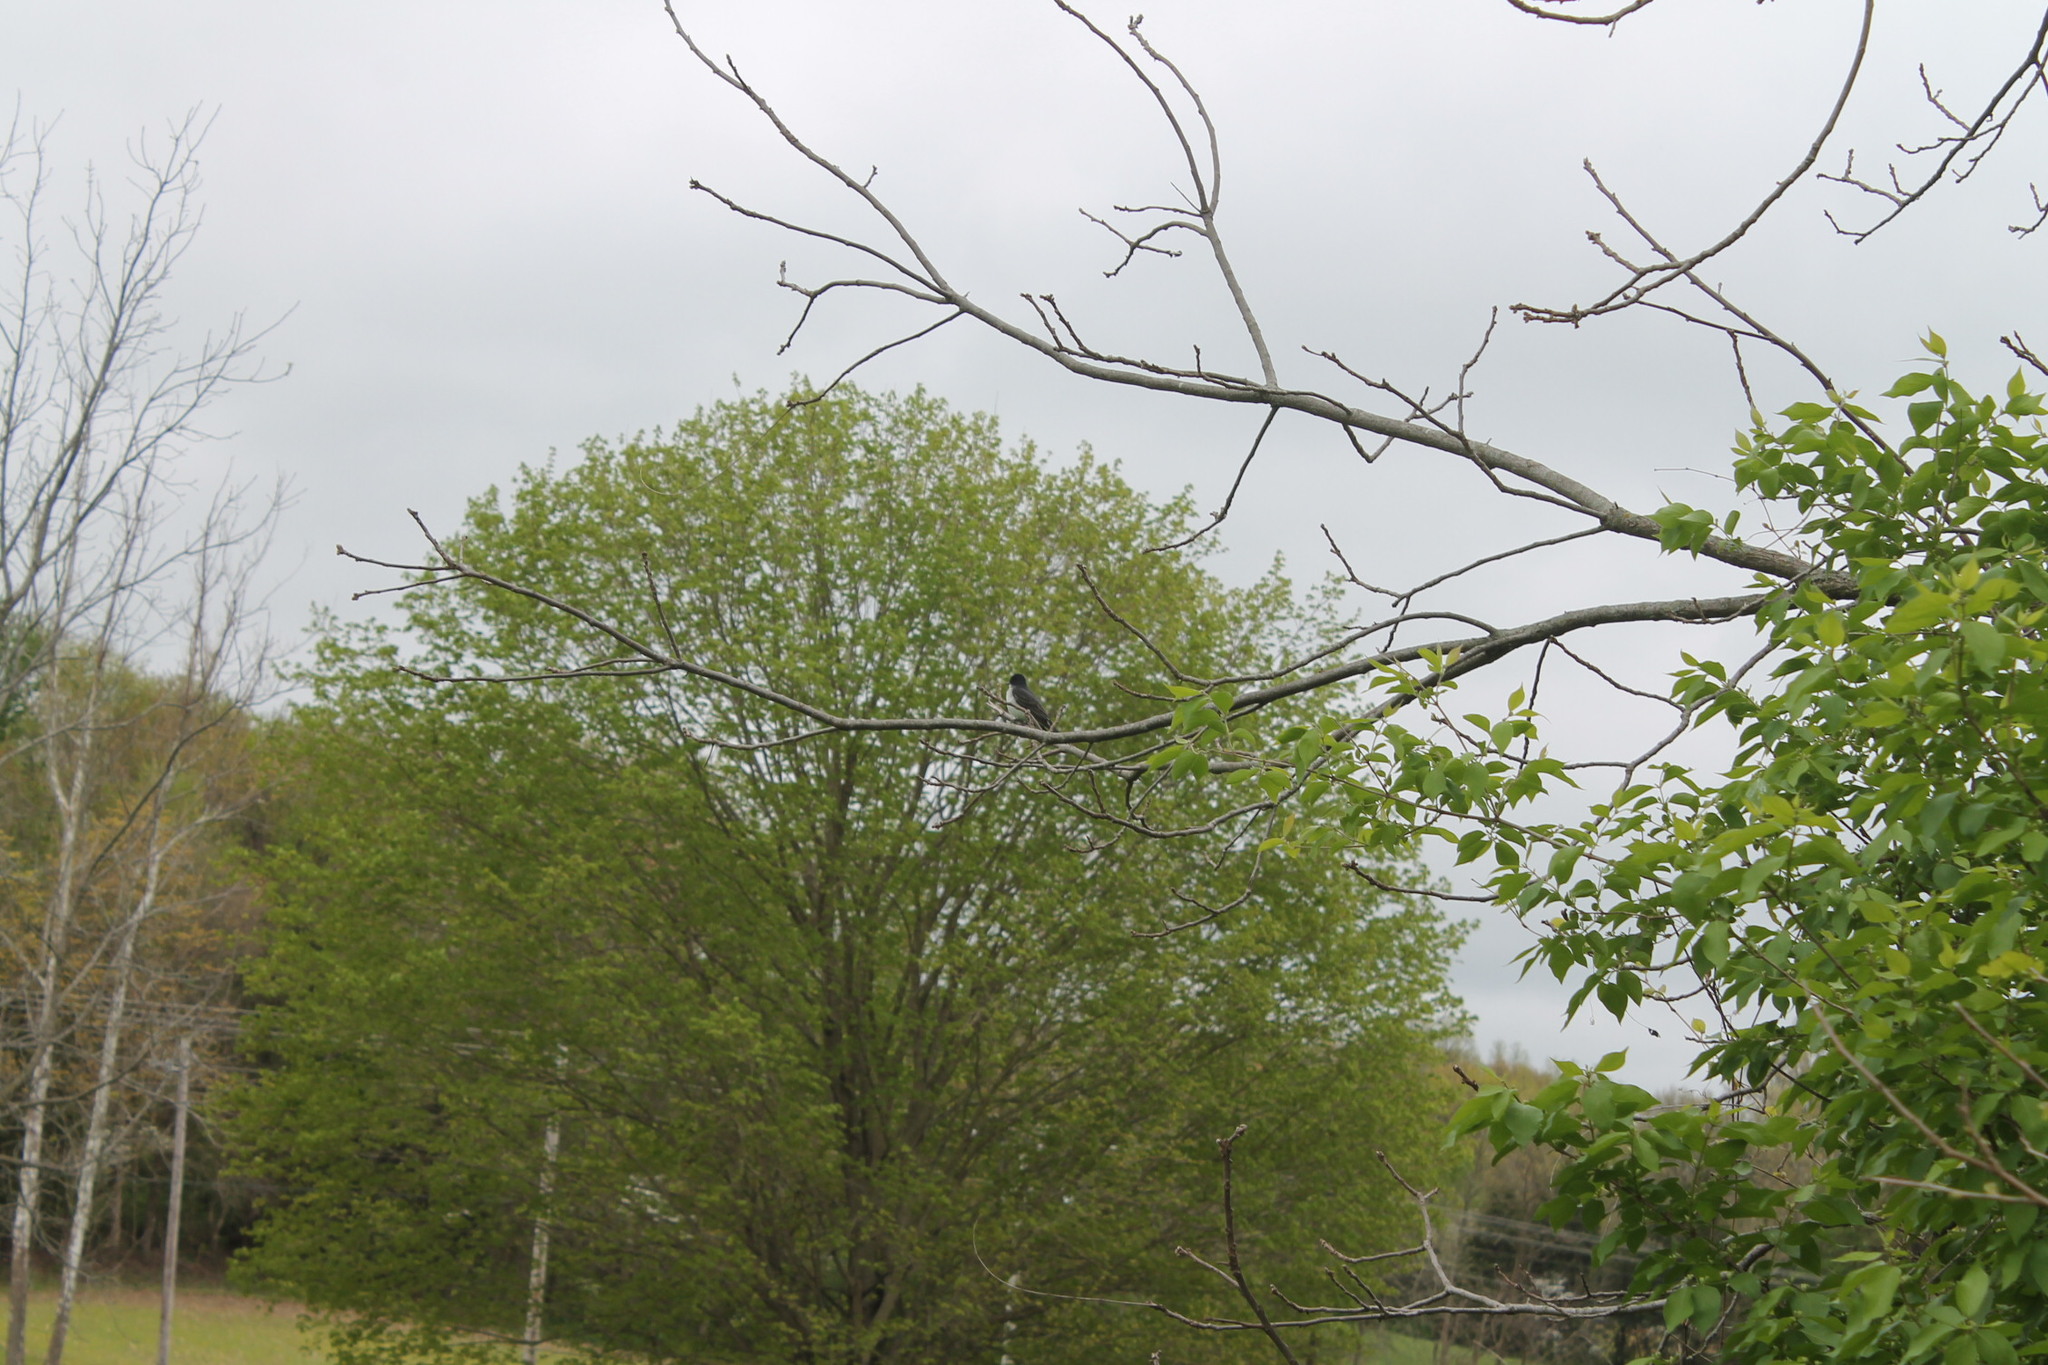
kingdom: Animalia
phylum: Chordata
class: Aves
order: Passeriformes
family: Tyrannidae
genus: Tyrannus
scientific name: Tyrannus tyrannus
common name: Eastern kingbird
